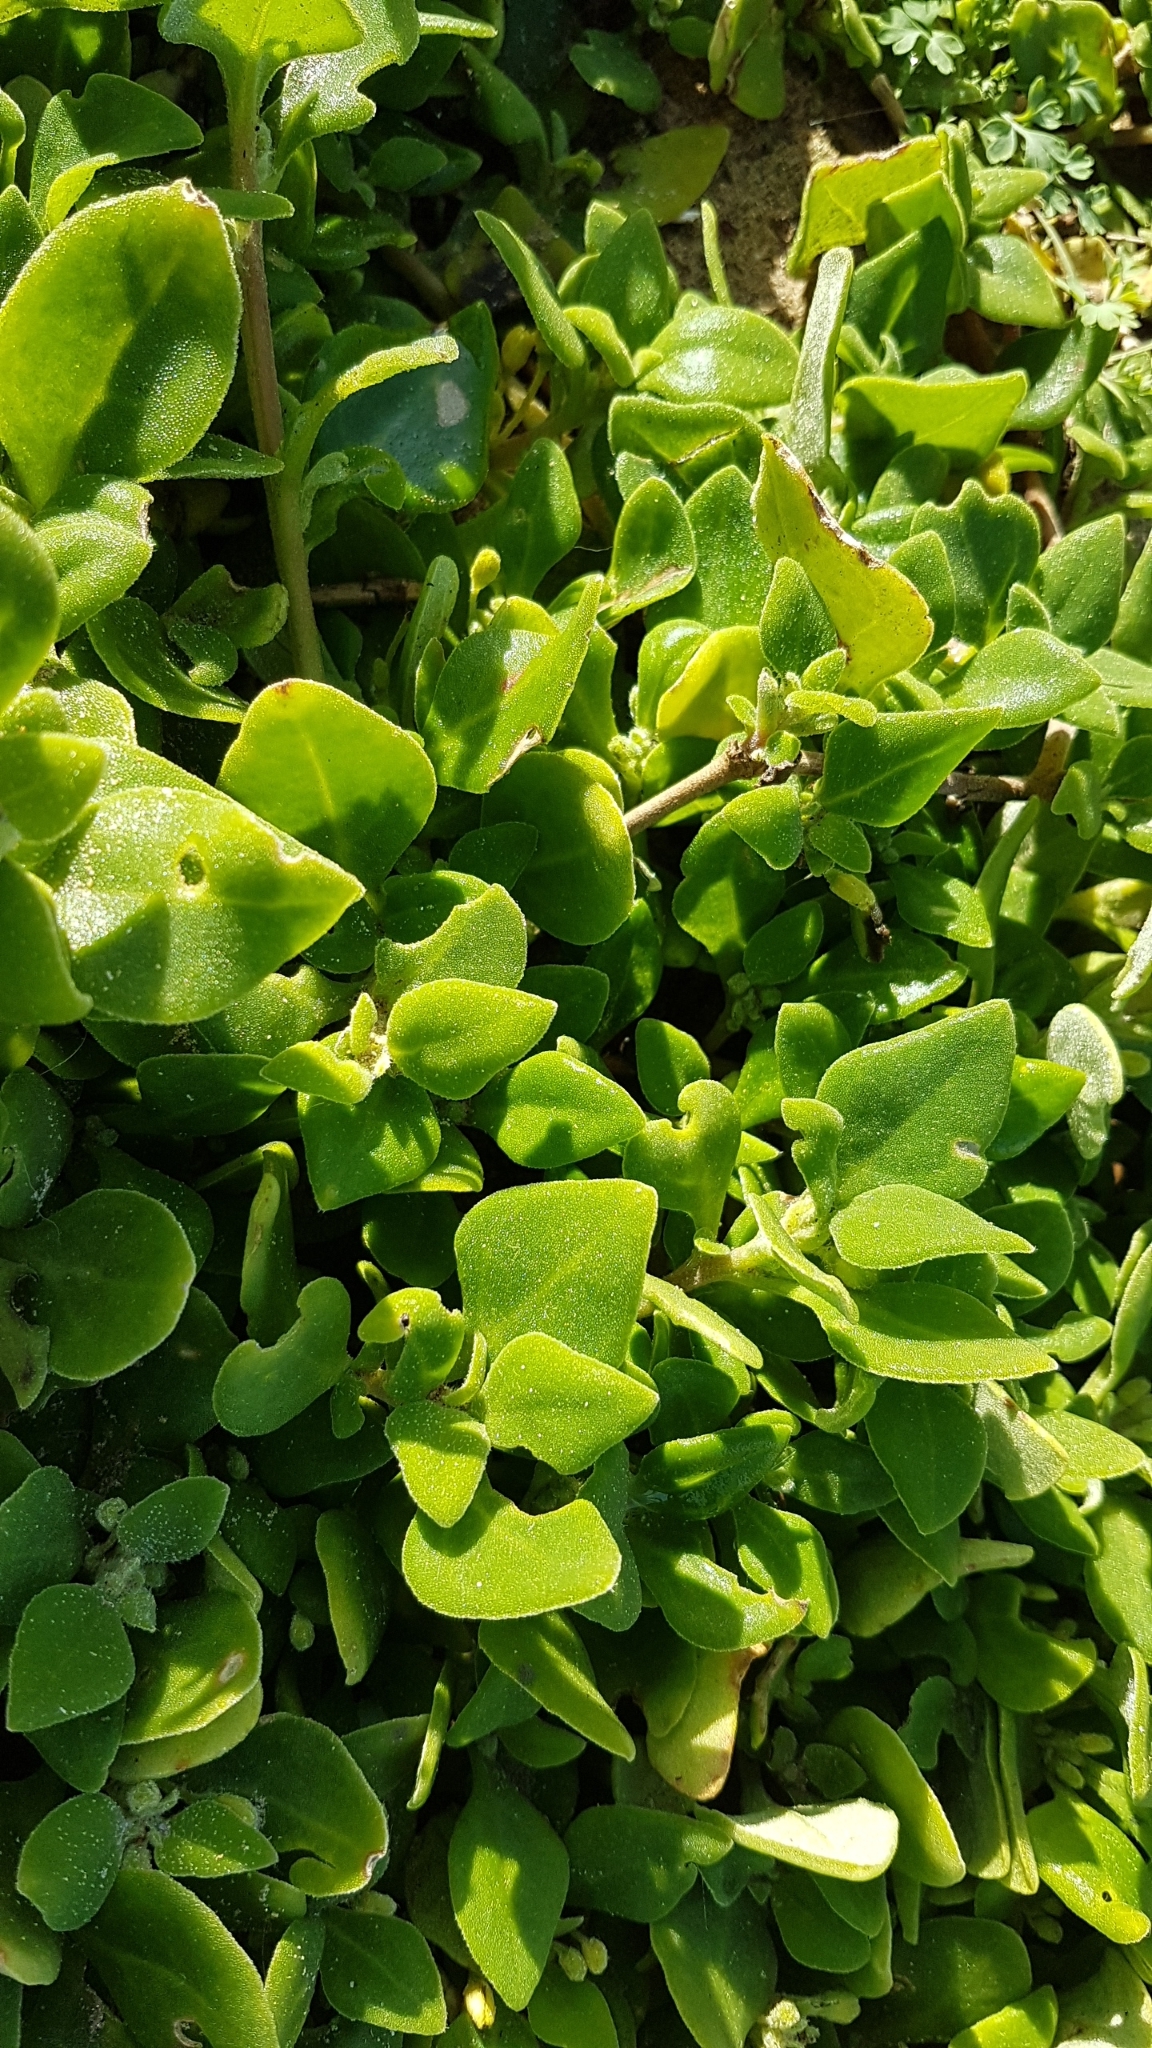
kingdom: Plantae
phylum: Tracheophyta
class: Magnoliopsida
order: Caryophyllales
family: Aizoaceae
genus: Tetragonia
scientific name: Tetragonia implexicoma
